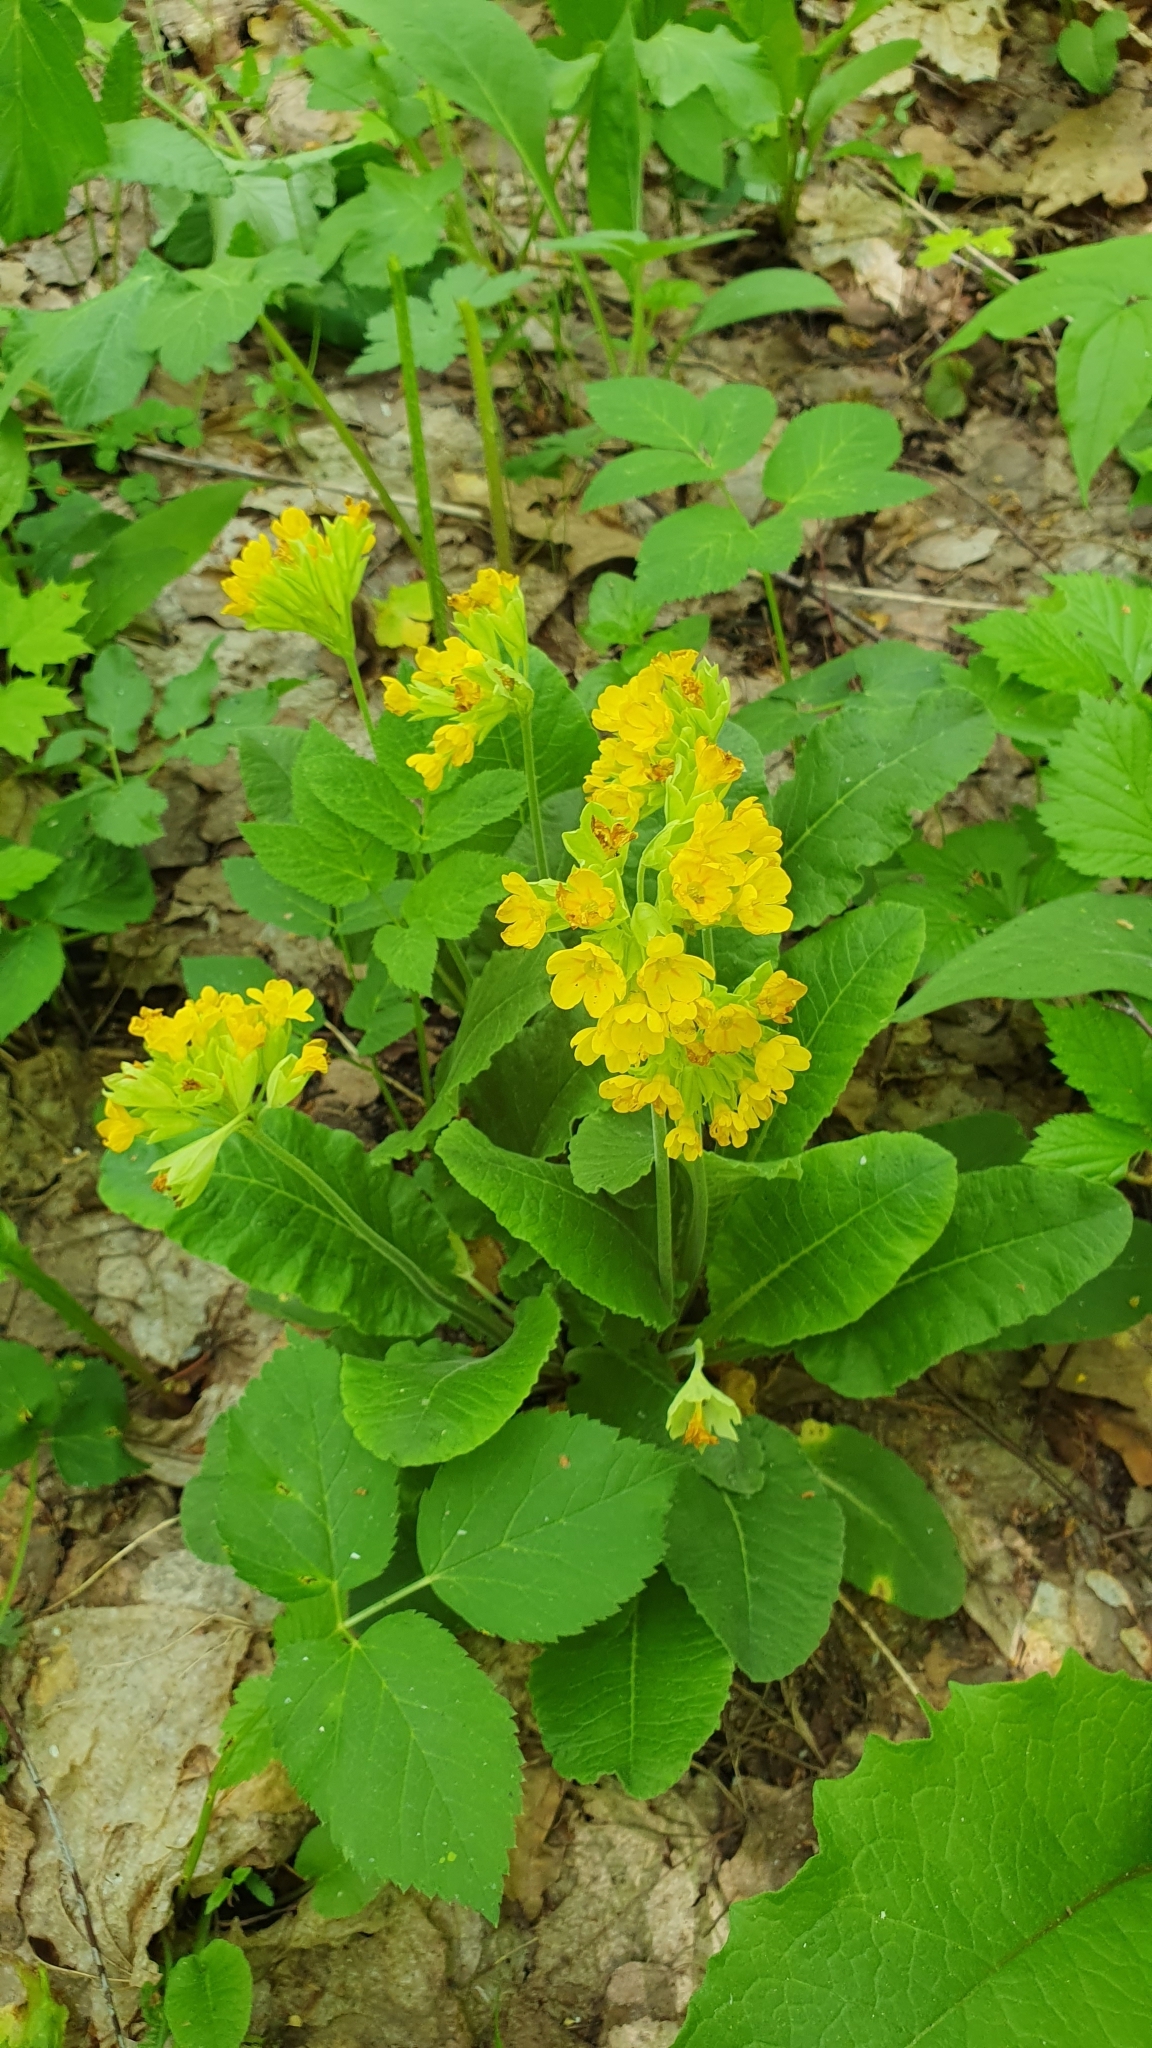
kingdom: Plantae
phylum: Tracheophyta
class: Magnoliopsida
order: Ericales
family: Primulaceae
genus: Primula
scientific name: Primula veris
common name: Cowslip
